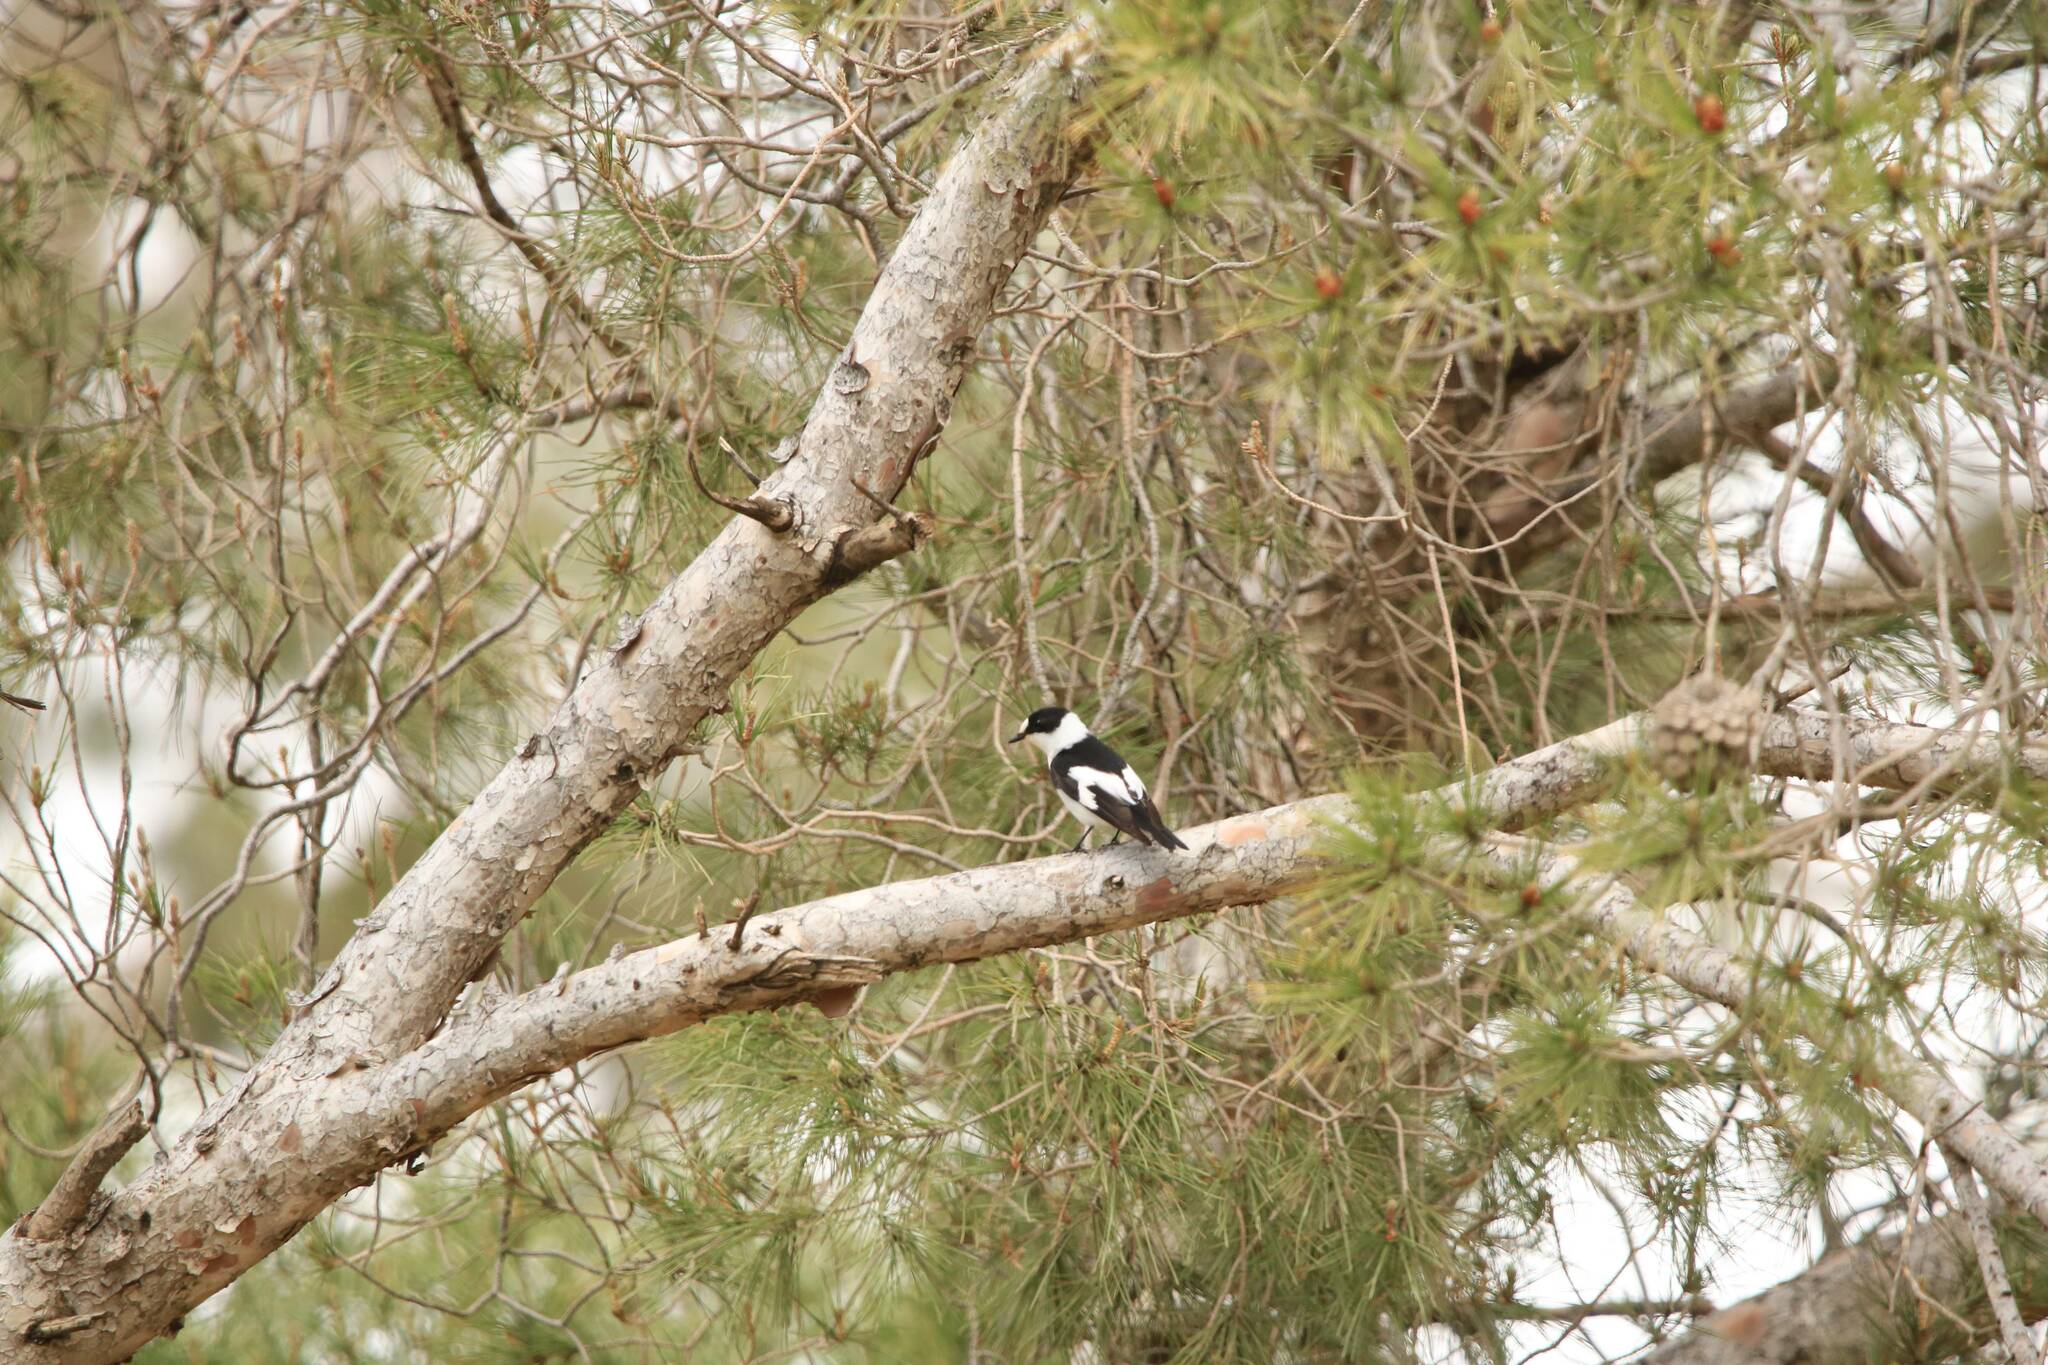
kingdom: Animalia
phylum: Chordata
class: Aves
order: Passeriformes
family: Muscicapidae
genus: Ficedula
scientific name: Ficedula albicollis
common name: Collared flycatcher
